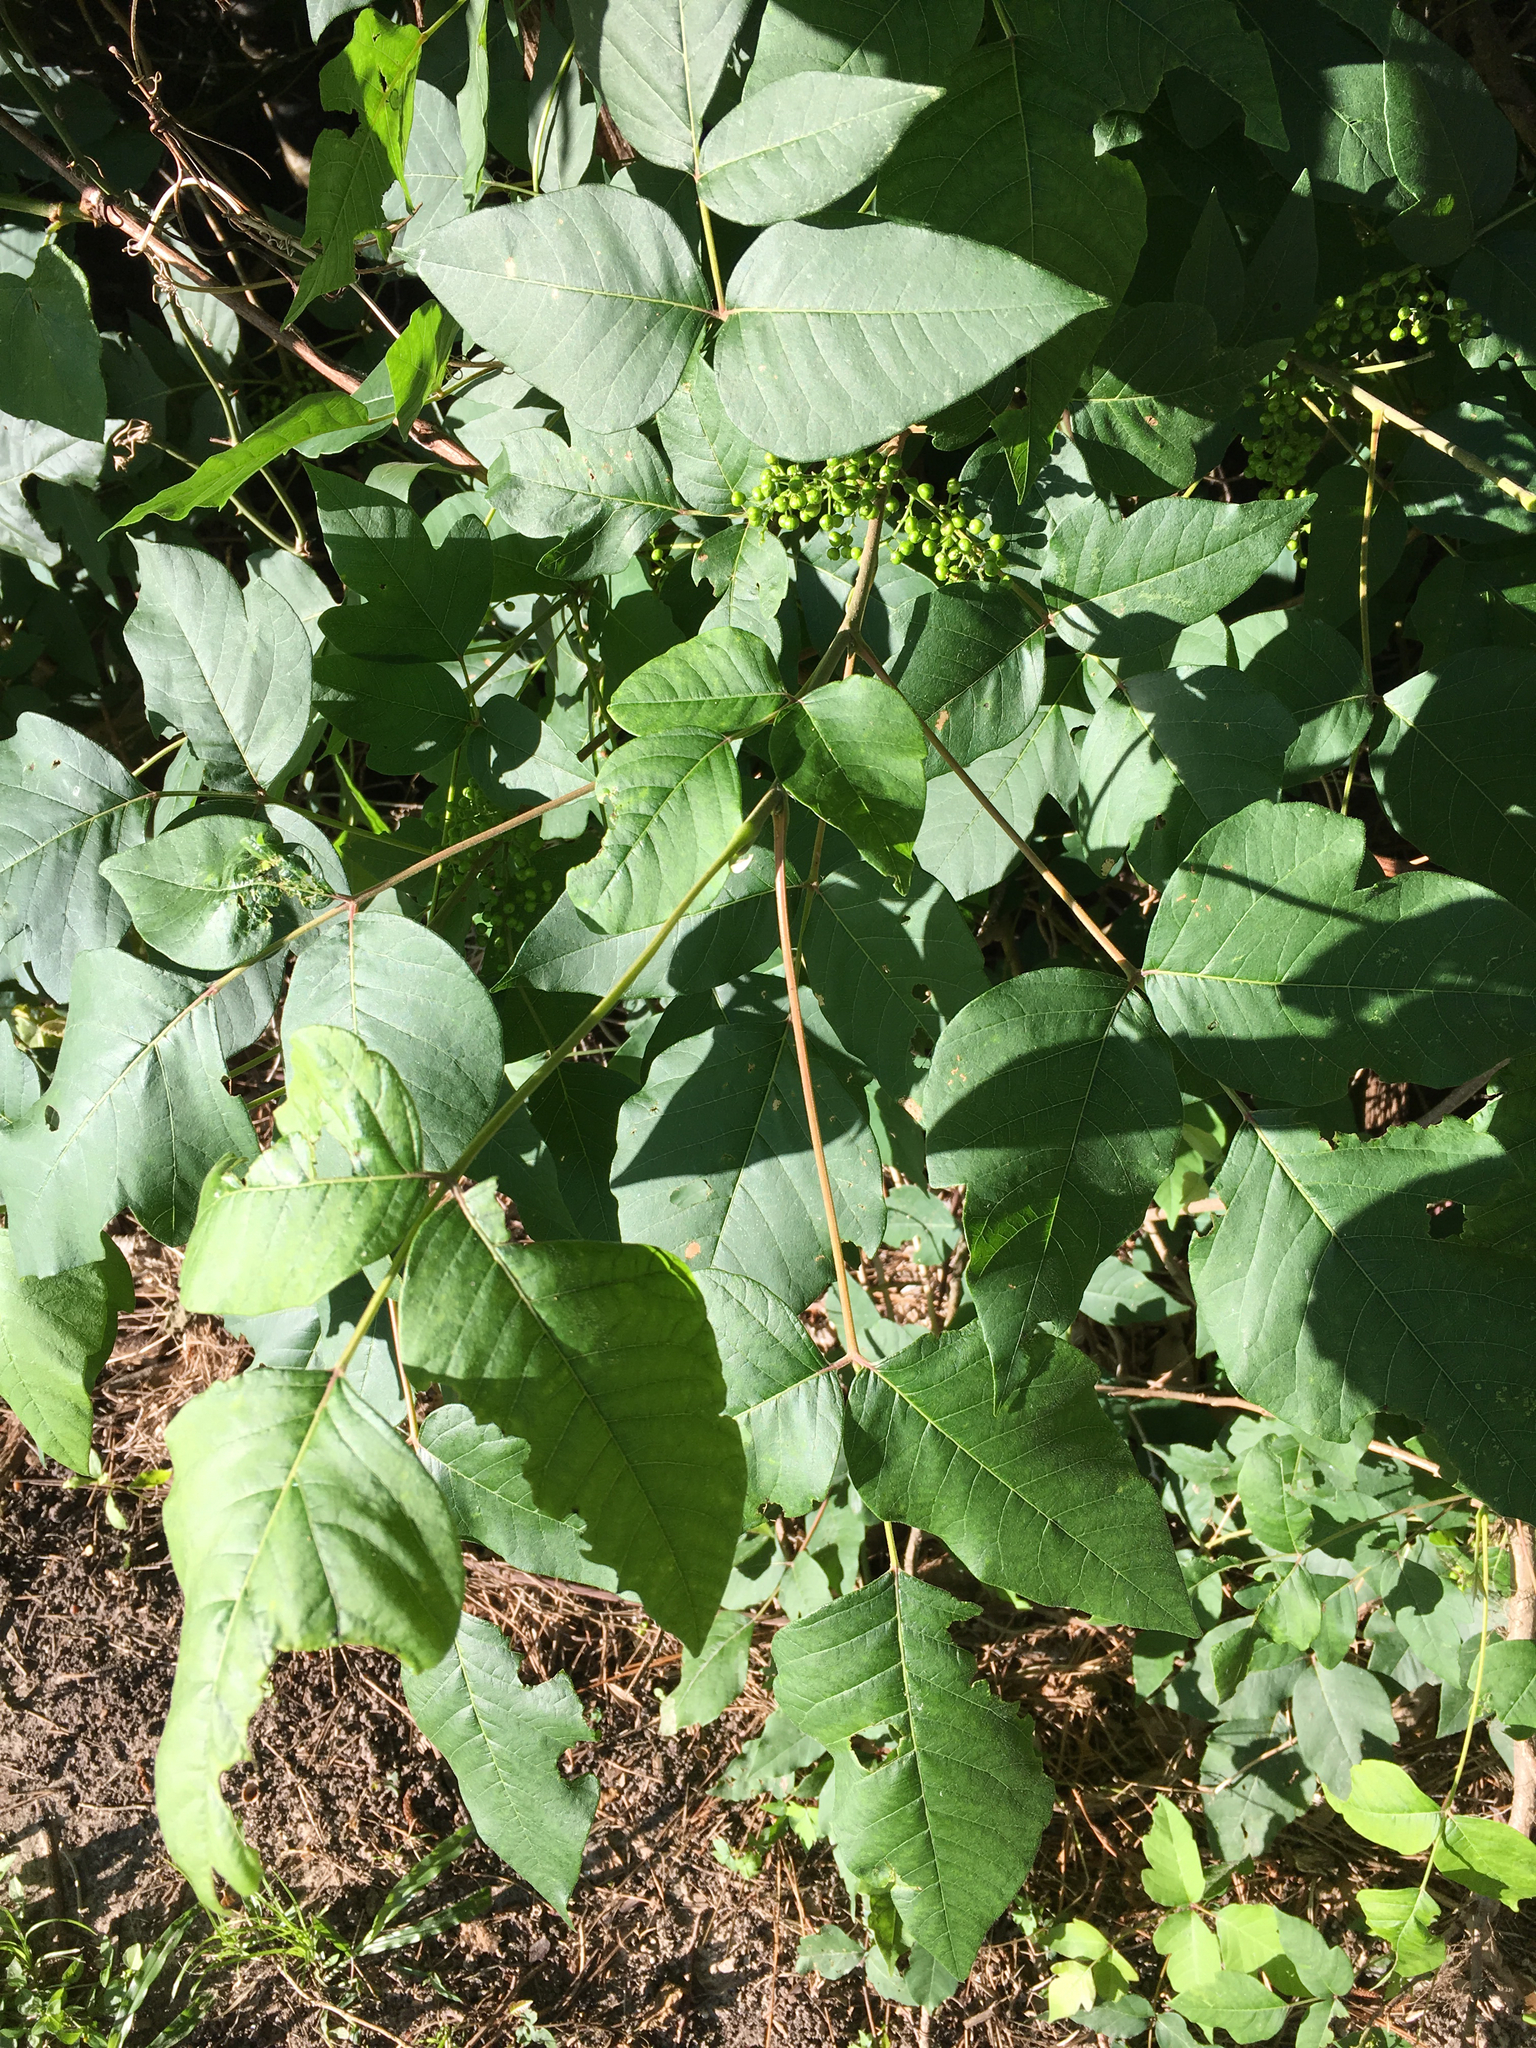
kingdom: Plantae
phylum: Tracheophyta
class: Magnoliopsida
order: Sapindales
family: Anacardiaceae
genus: Toxicodendron
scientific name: Toxicodendron radicans
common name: Poison ivy
